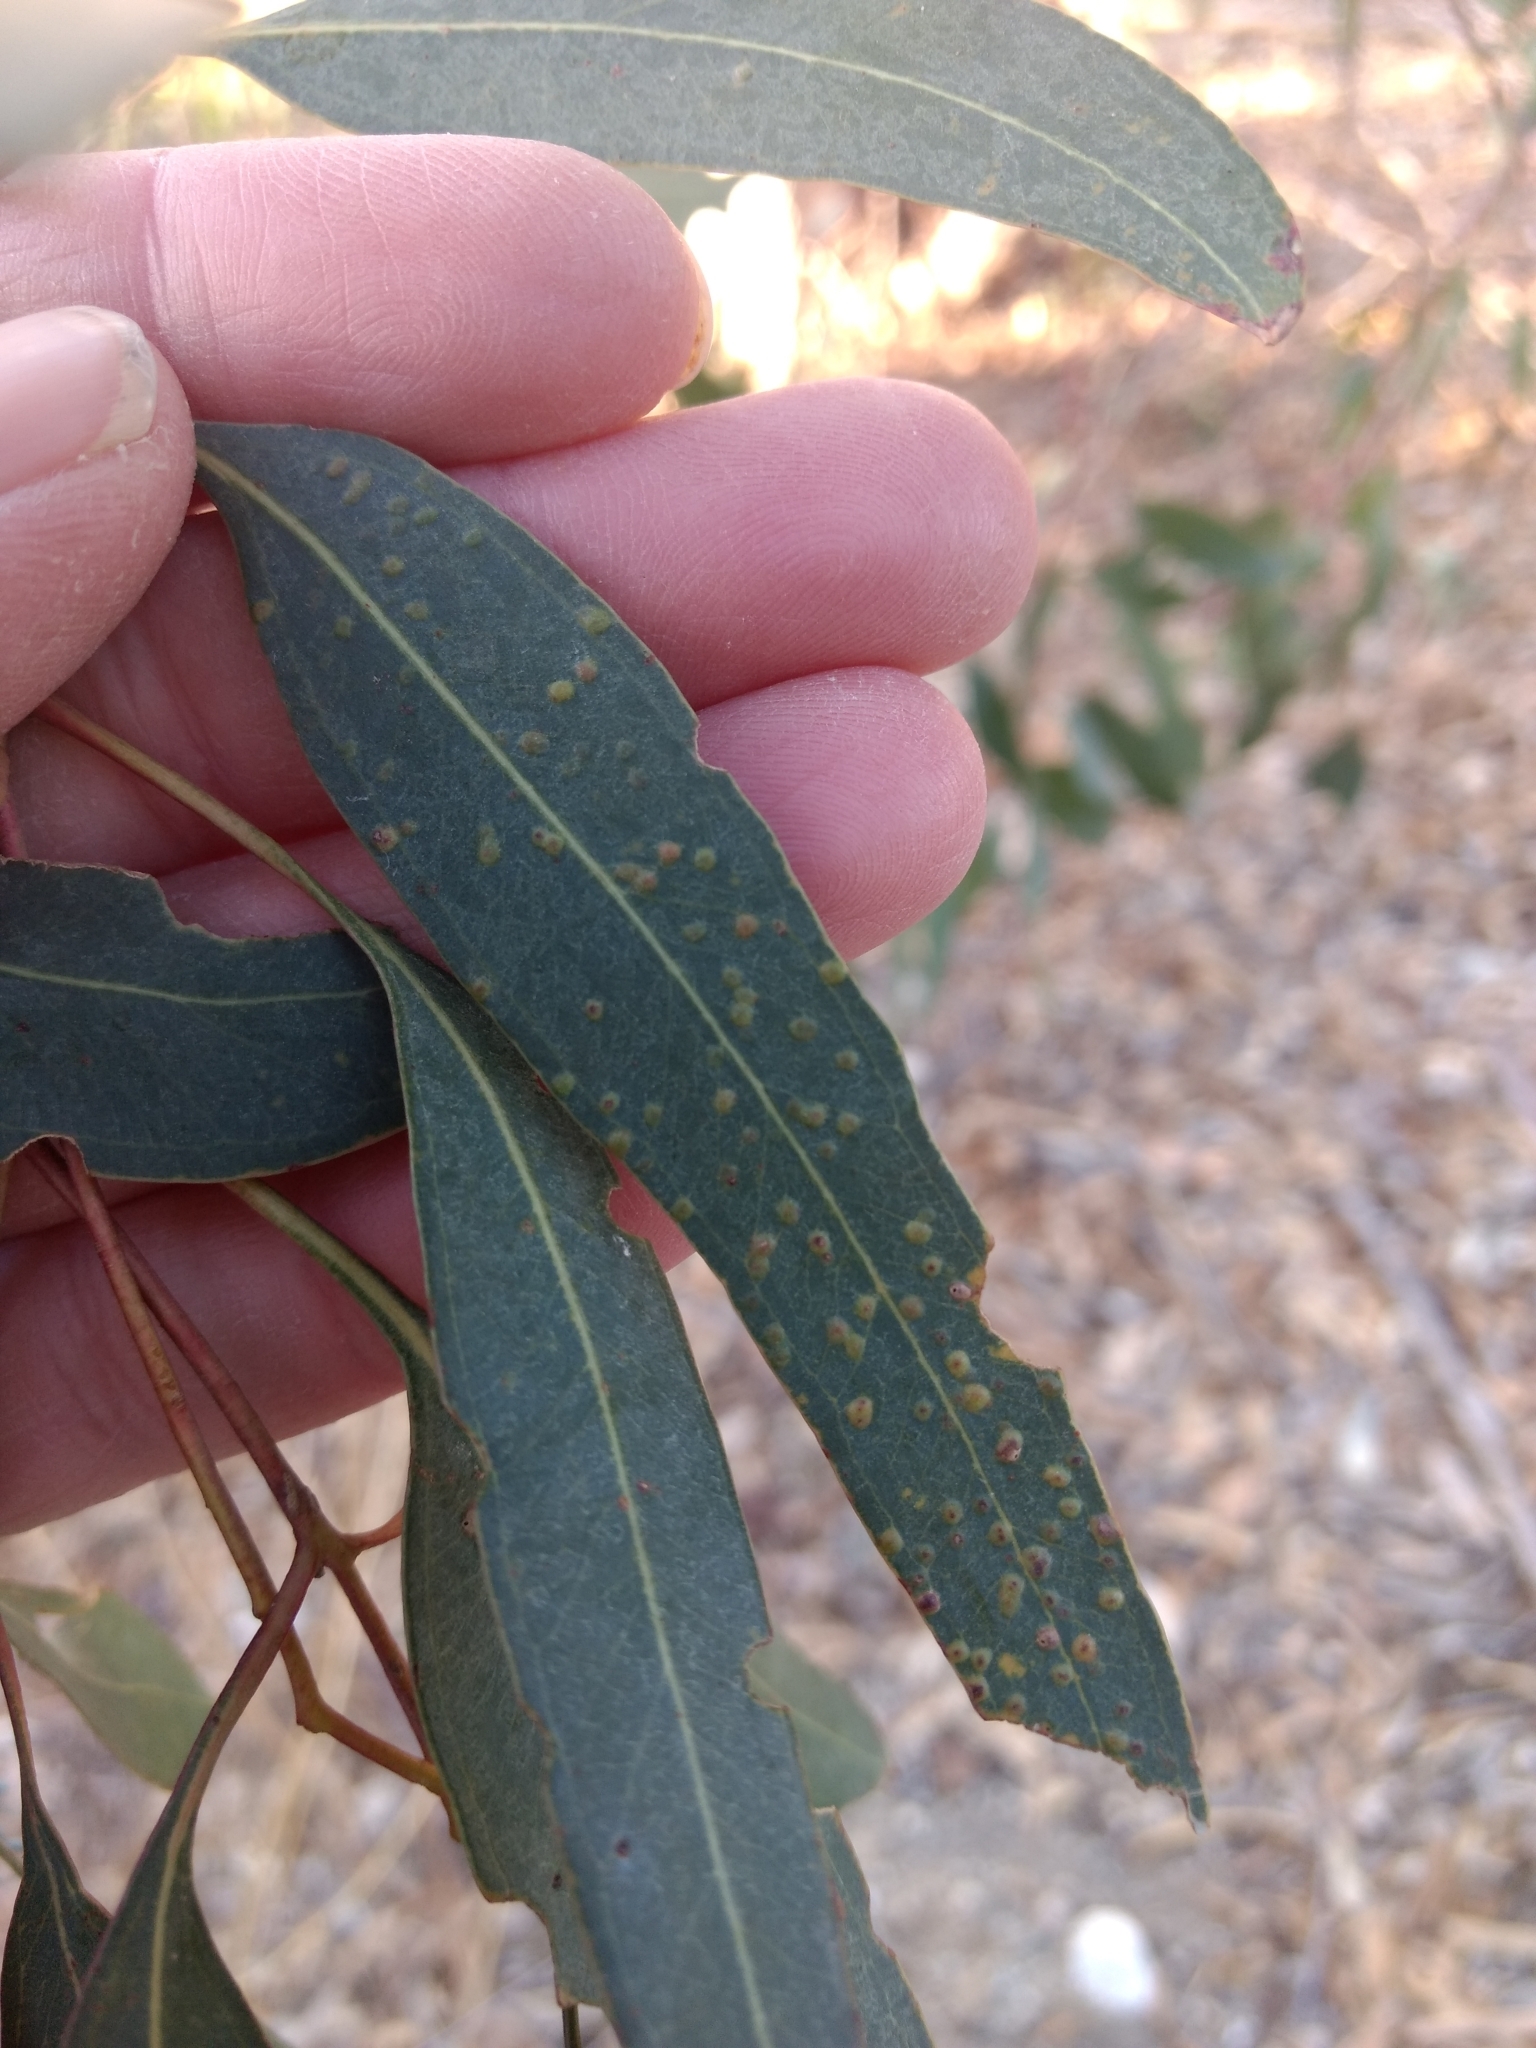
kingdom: Animalia
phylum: Arthropoda
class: Insecta
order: Hymenoptera
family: Eulophidae
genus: Ophelimus
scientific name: Ophelimus maskelli
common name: Gall wasp
